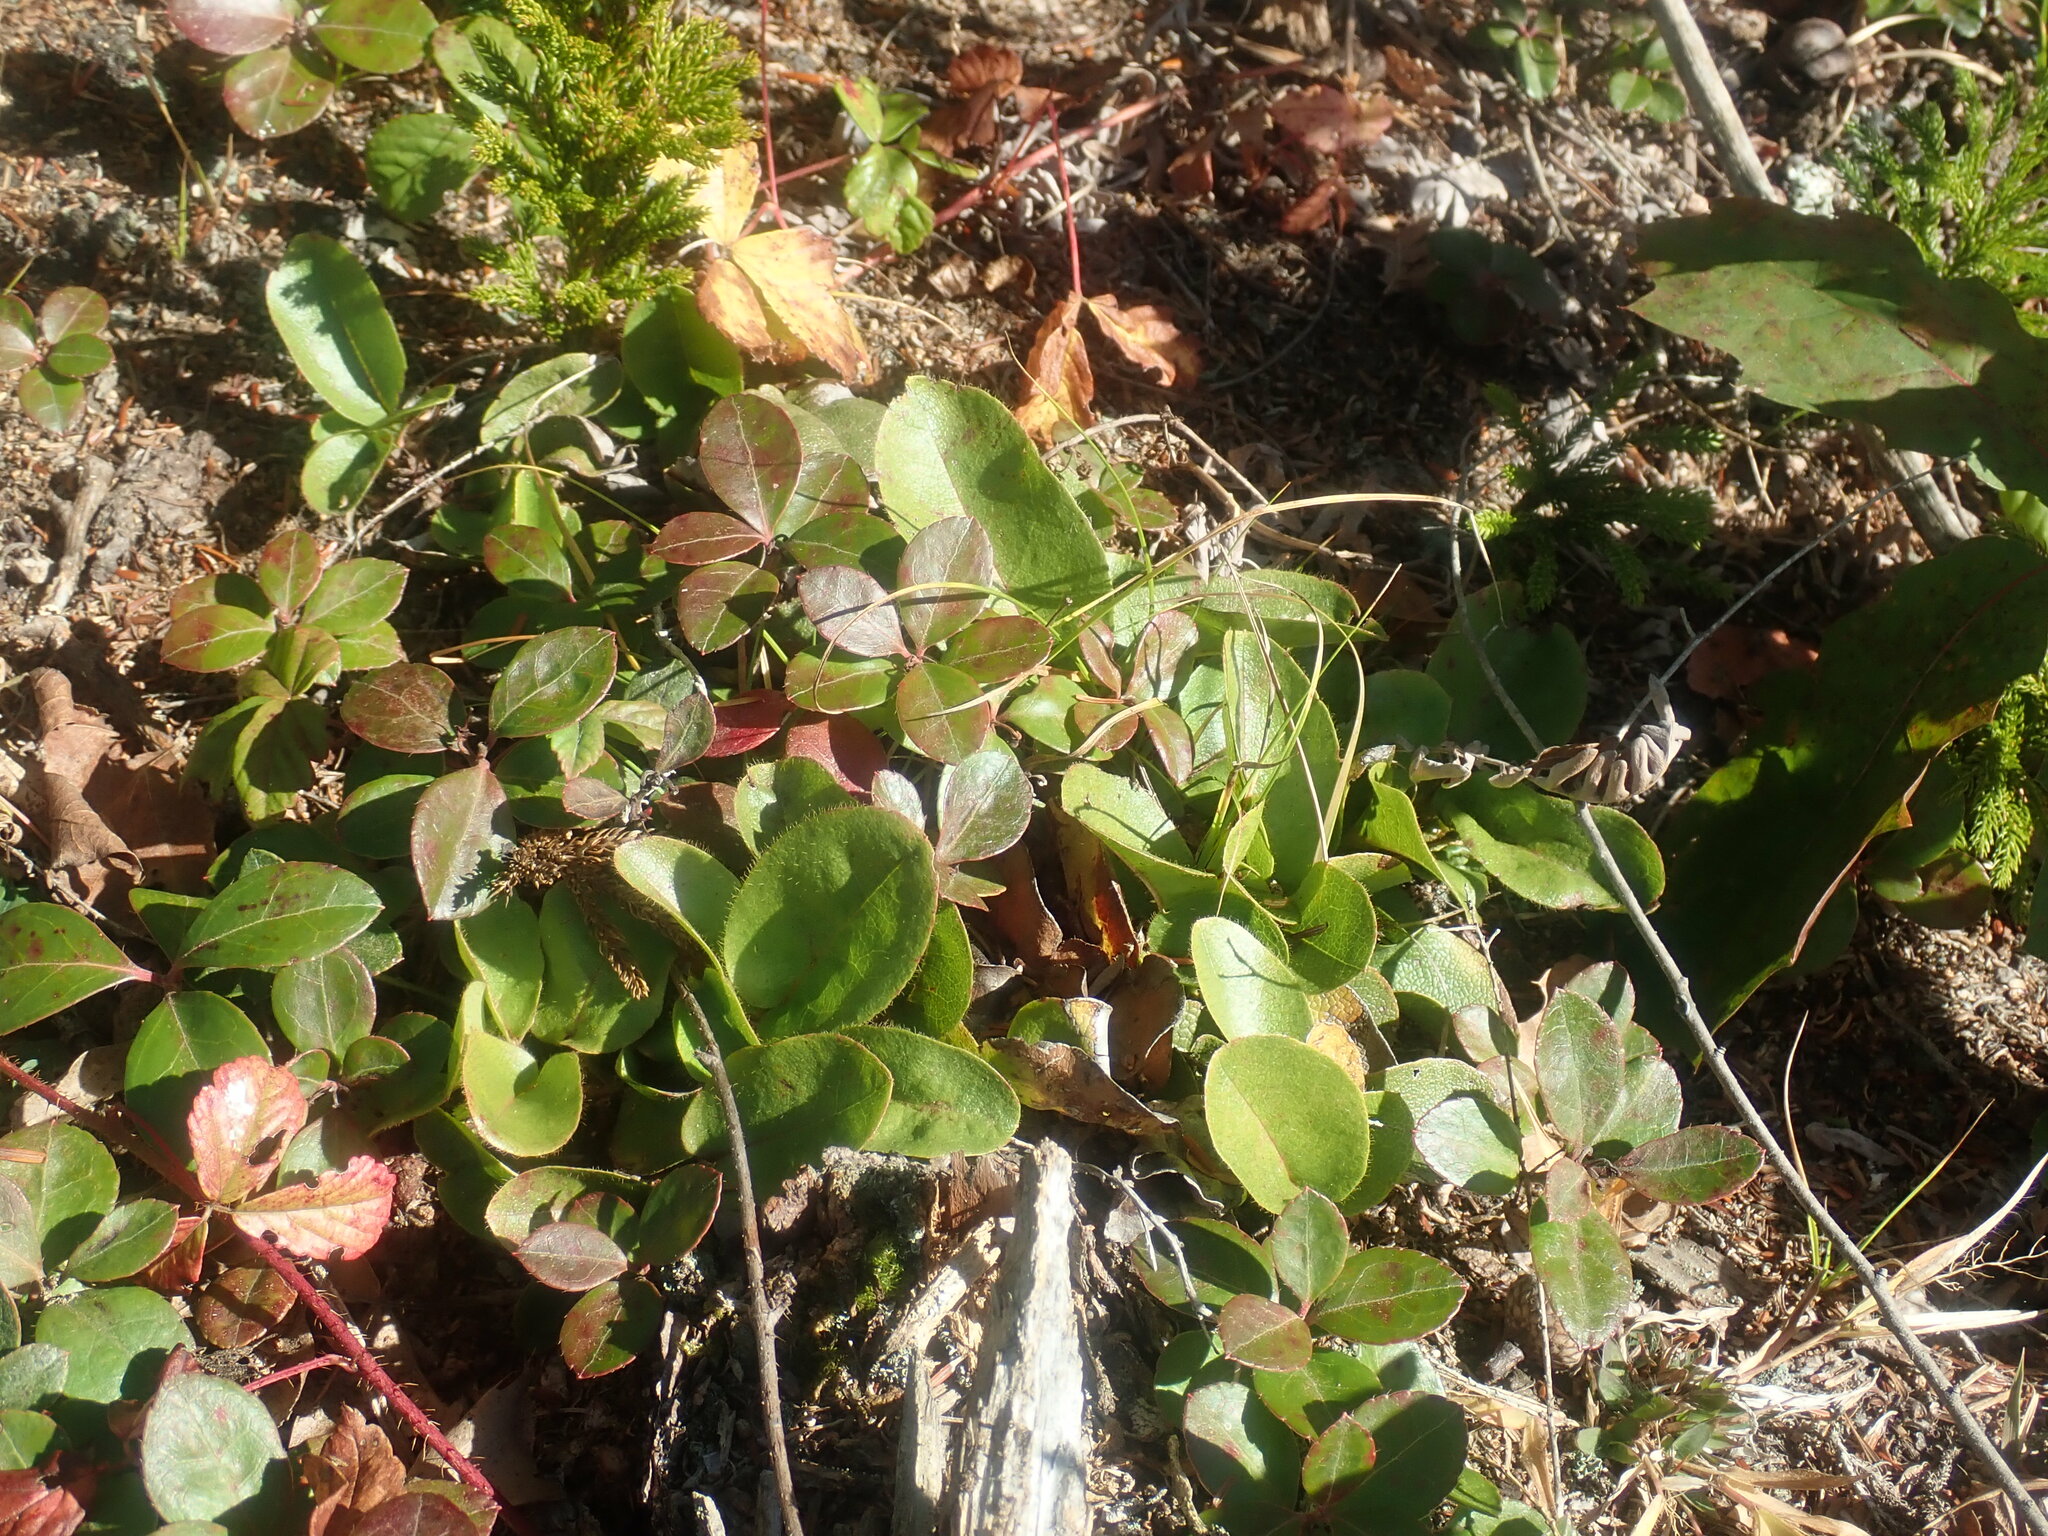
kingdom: Plantae
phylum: Tracheophyta
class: Magnoliopsida
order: Ericales
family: Ericaceae
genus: Epigaea
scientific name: Epigaea repens
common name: Gravelroot
